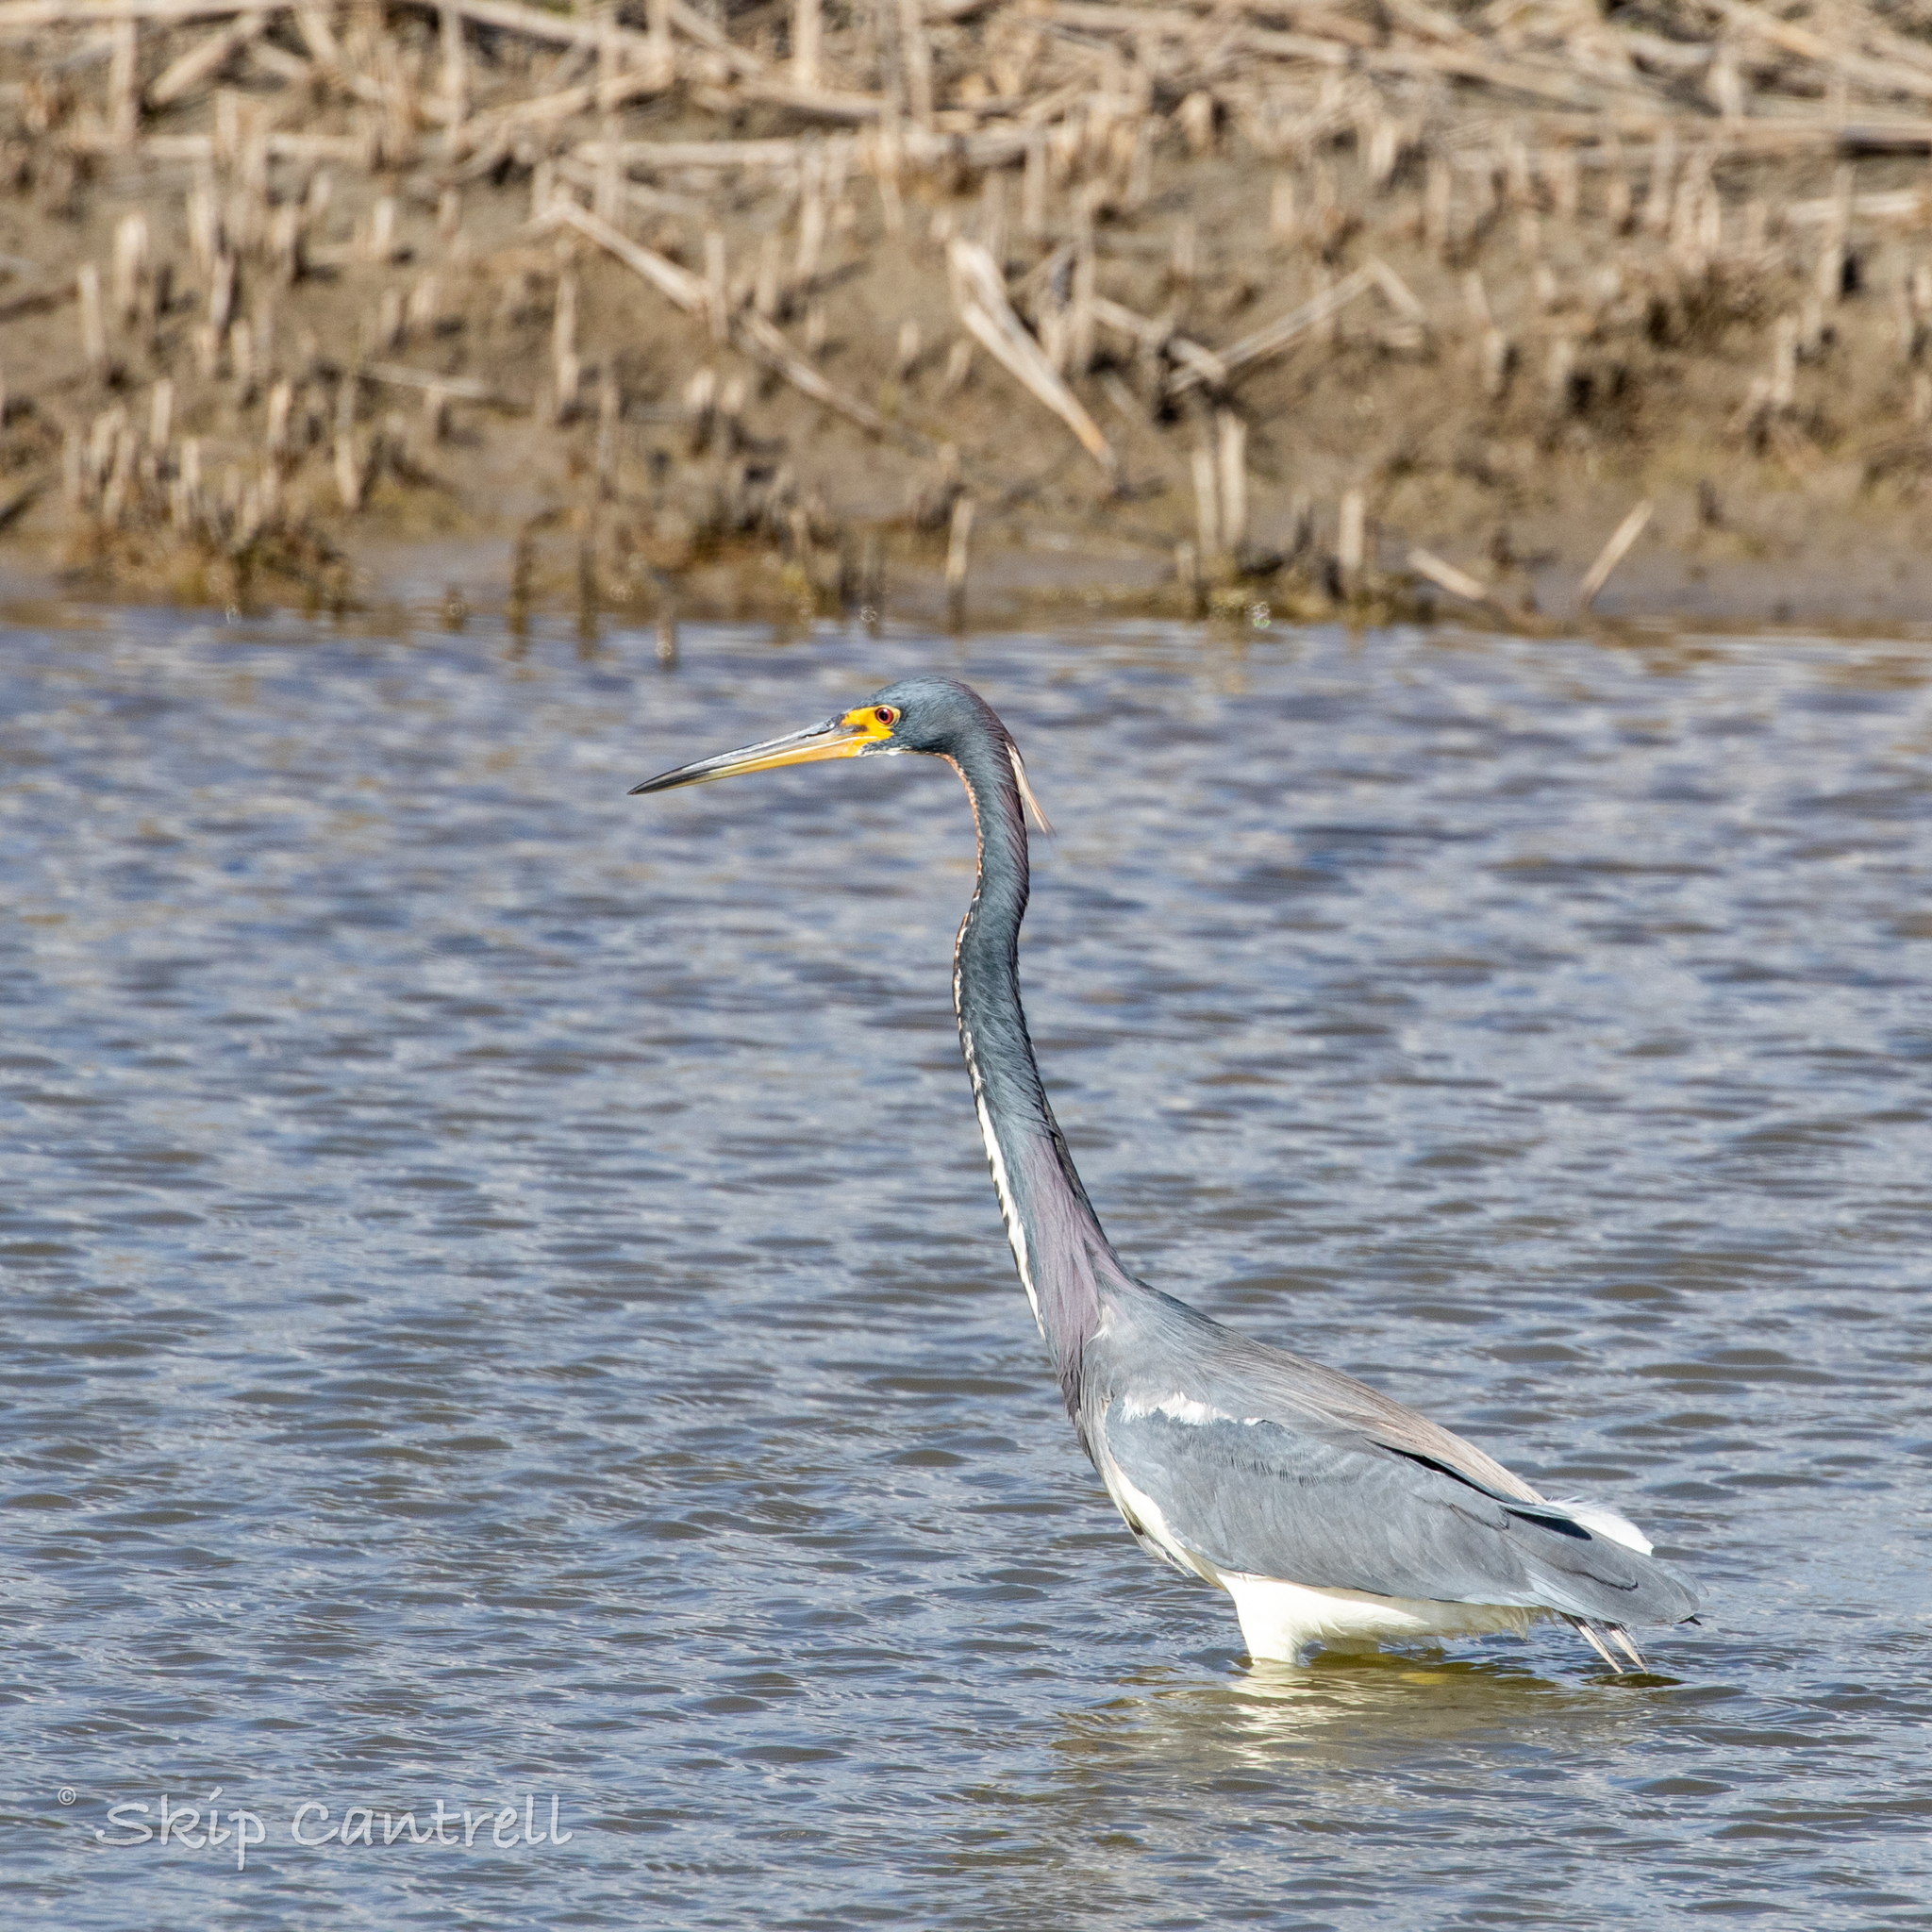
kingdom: Animalia
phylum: Chordata
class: Aves
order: Pelecaniformes
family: Ardeidae
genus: Egretta
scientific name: Egretta tricolor
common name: Tricolored heron
